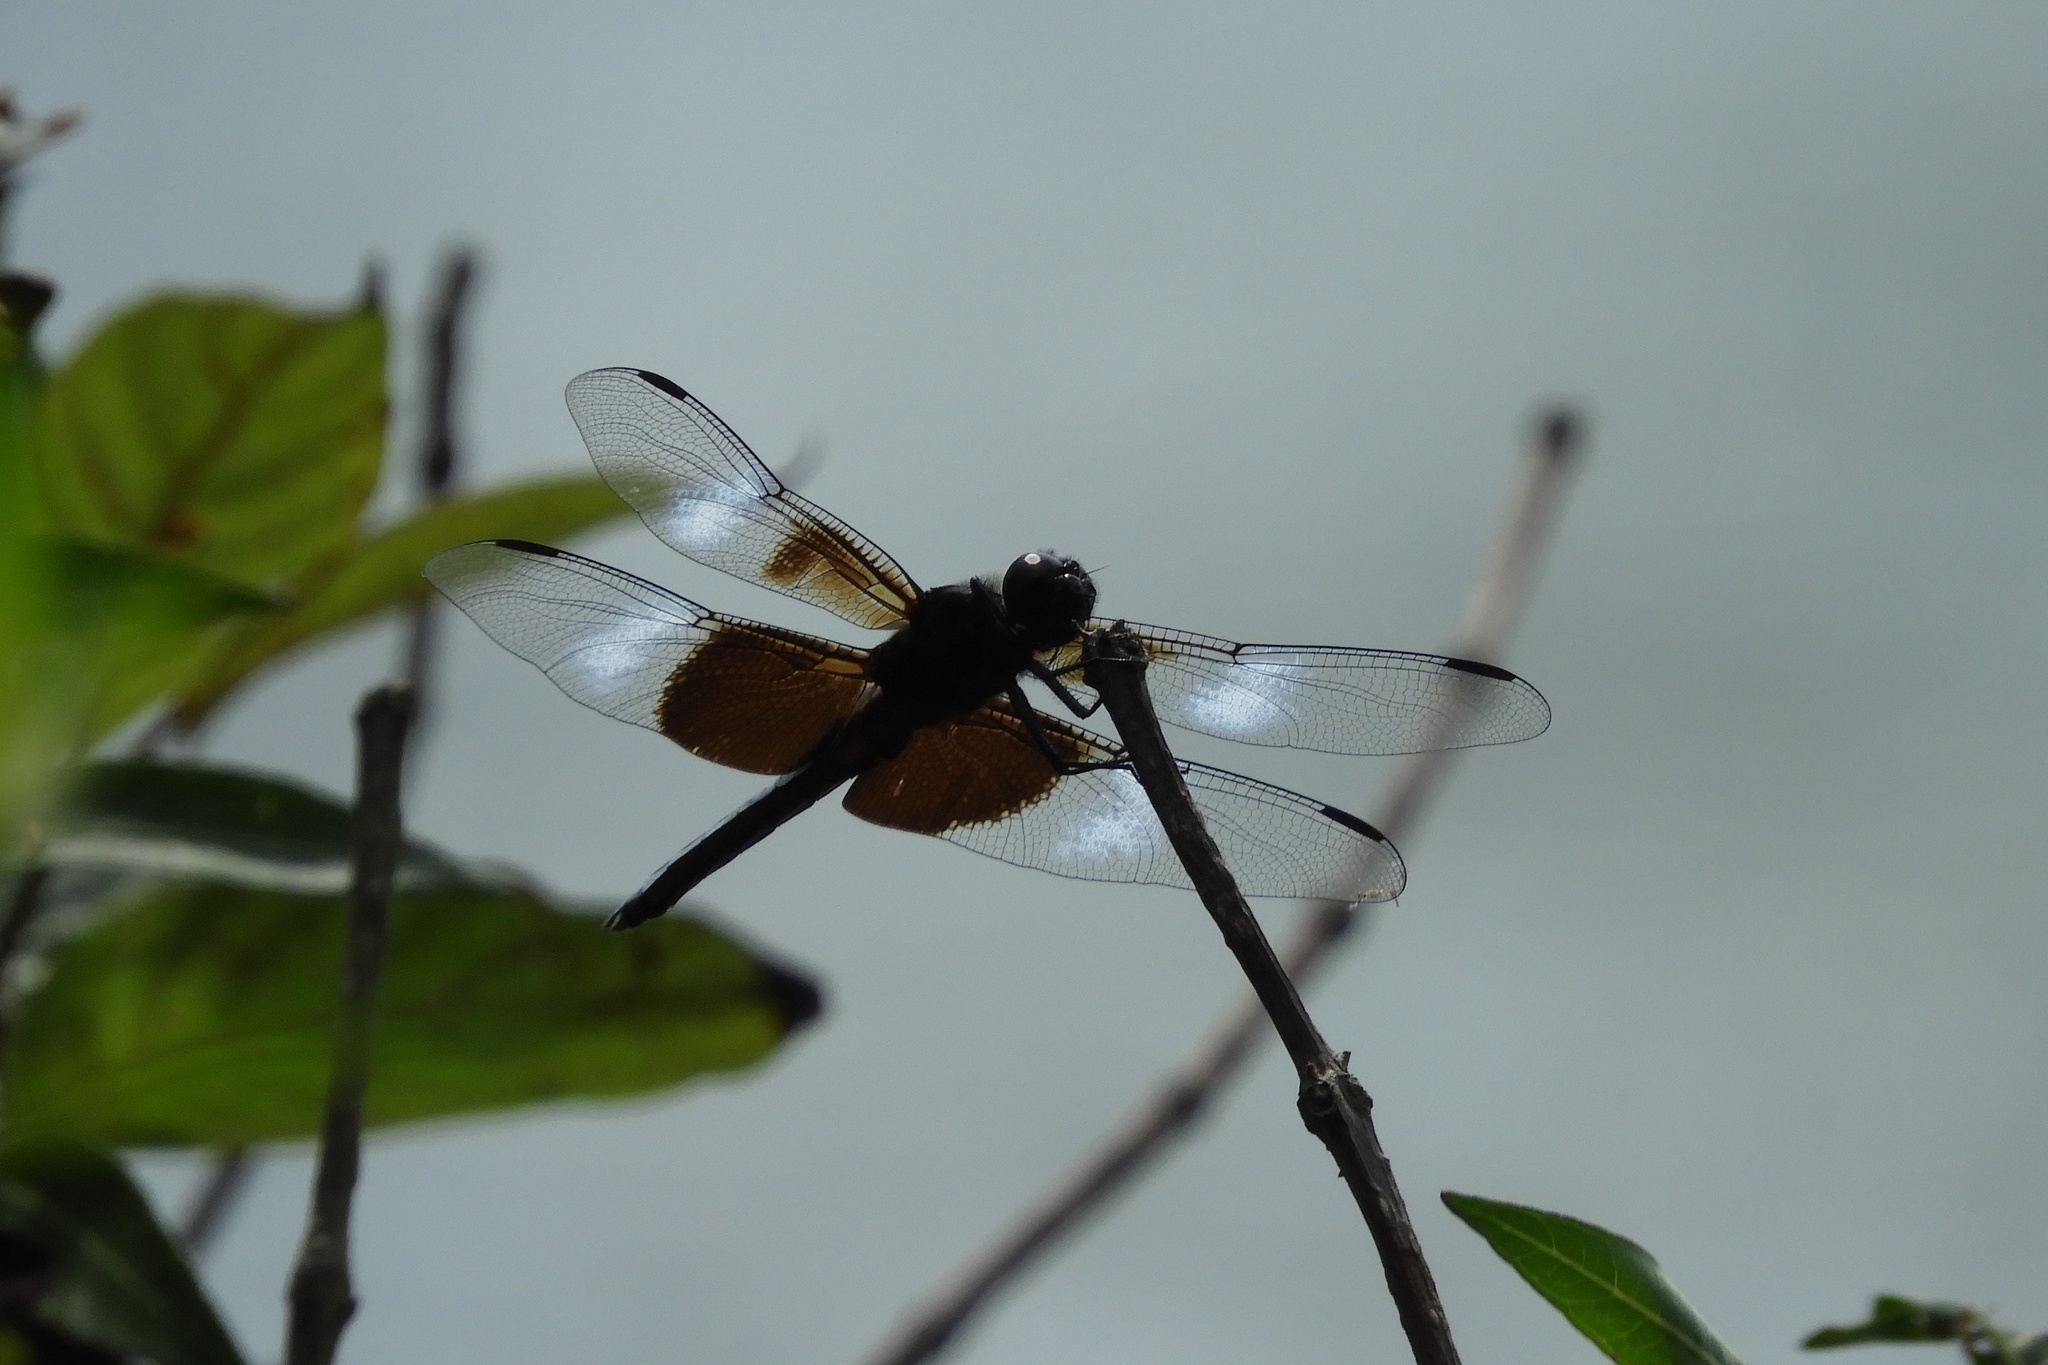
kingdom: Animalia
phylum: Arthropoda
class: Insecta
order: Odonata
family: Libellulidae
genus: Libellula
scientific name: Libellula luctuosa
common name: Widow skimmer
